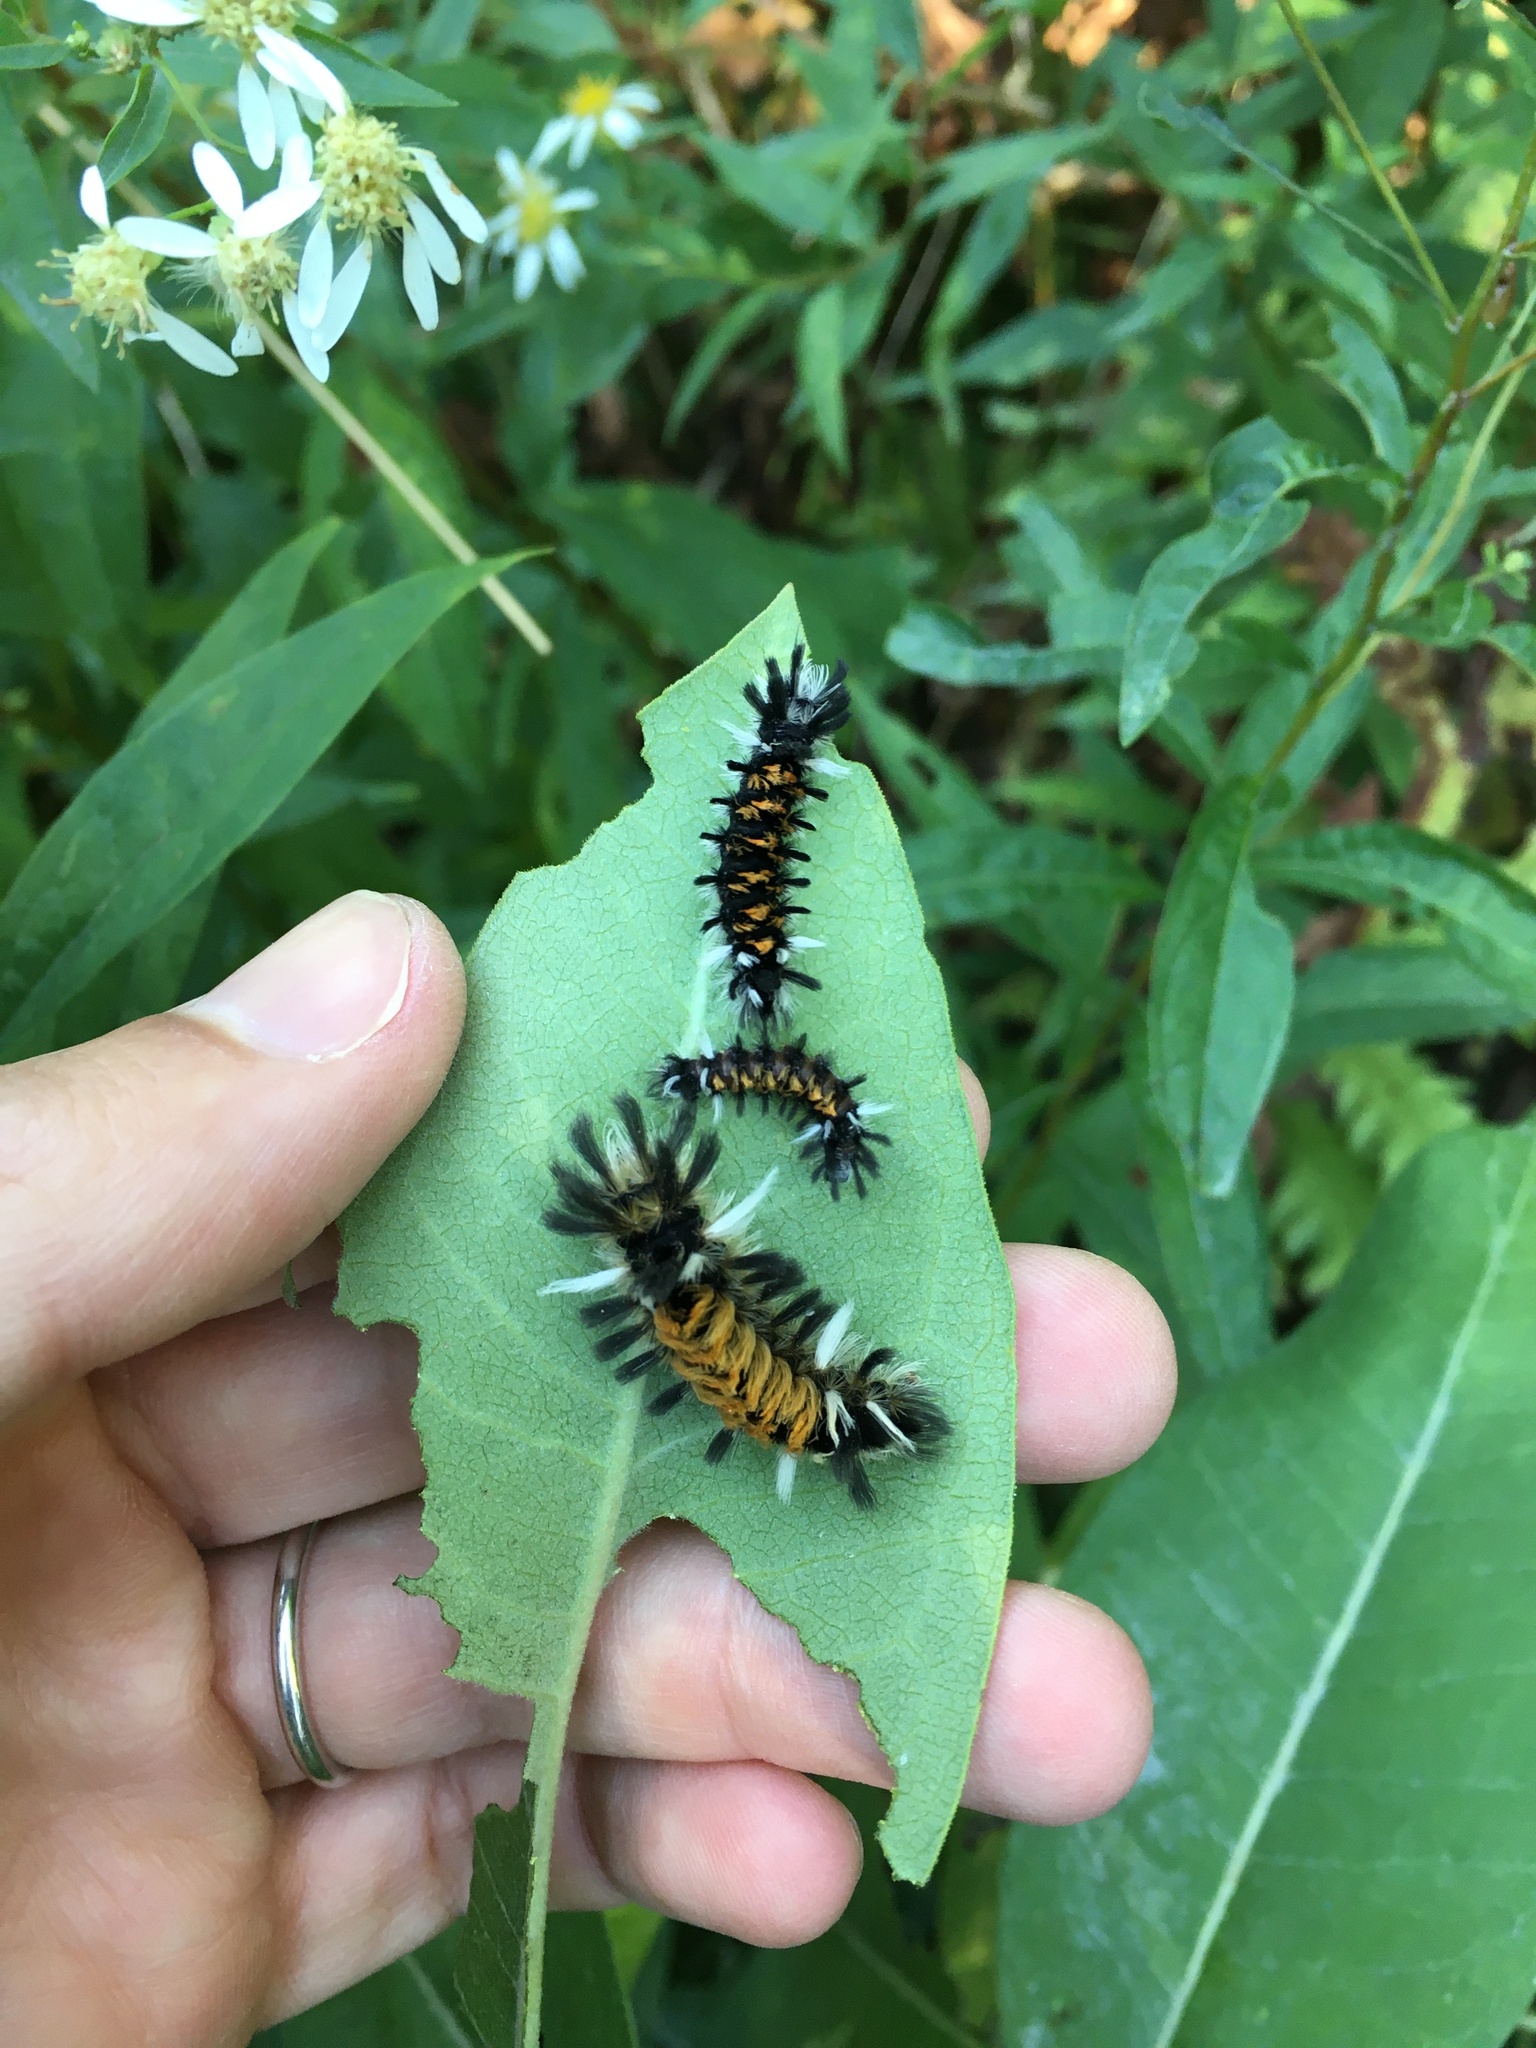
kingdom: Animalia
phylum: Arthropoda
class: Insecta
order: Lepidoptera
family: Erebidae
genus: Euchaetes
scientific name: Euchaetes egle
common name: Milkweed tussock moth
